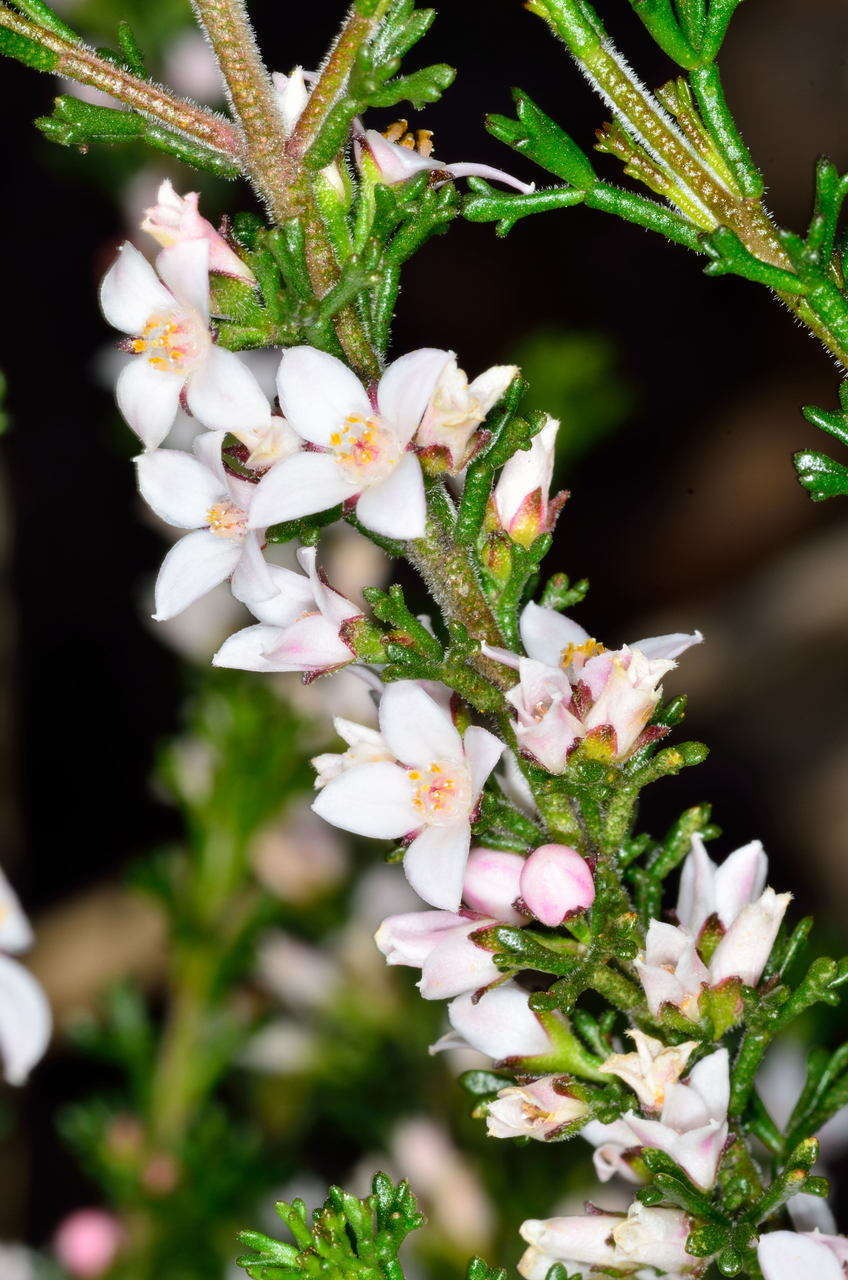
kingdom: Plantae
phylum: Tracheophyta
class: Magnoliopsida
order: Sapindales
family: Rutaceae
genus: Cyanothamnus
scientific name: Cyanothamnus anemonifolius
